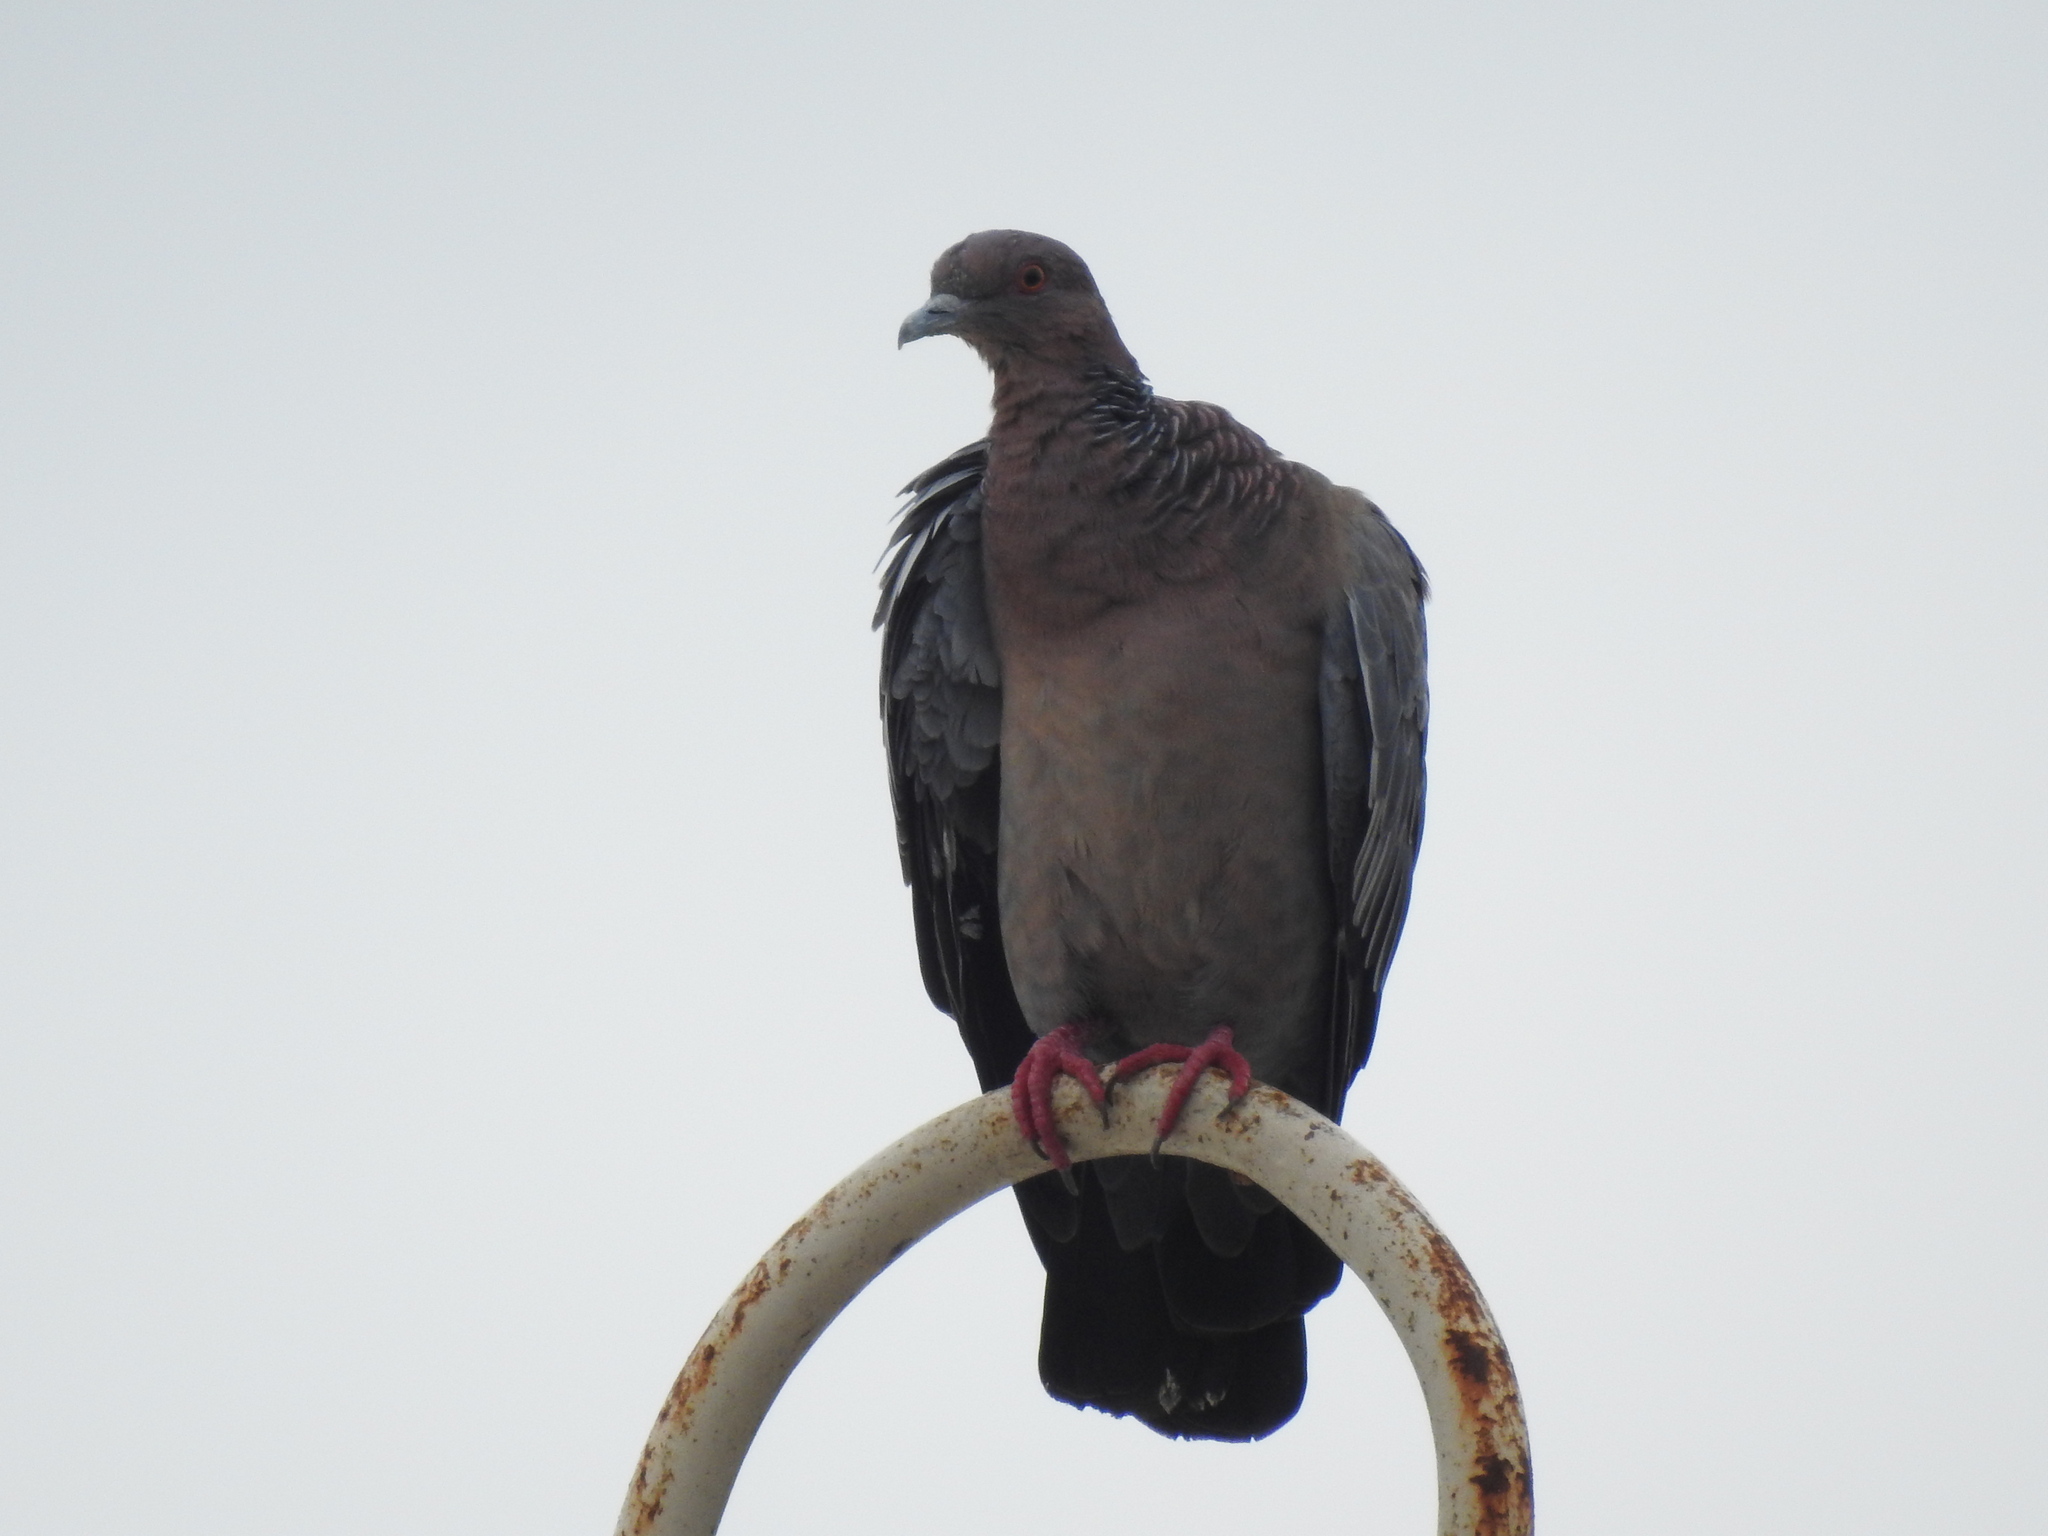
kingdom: Animalia
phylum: Chordata
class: Aves
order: Columbiformes
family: Columbidae
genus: Patagioenas
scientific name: Patagioenas picazuro
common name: Picazuro pigeon
